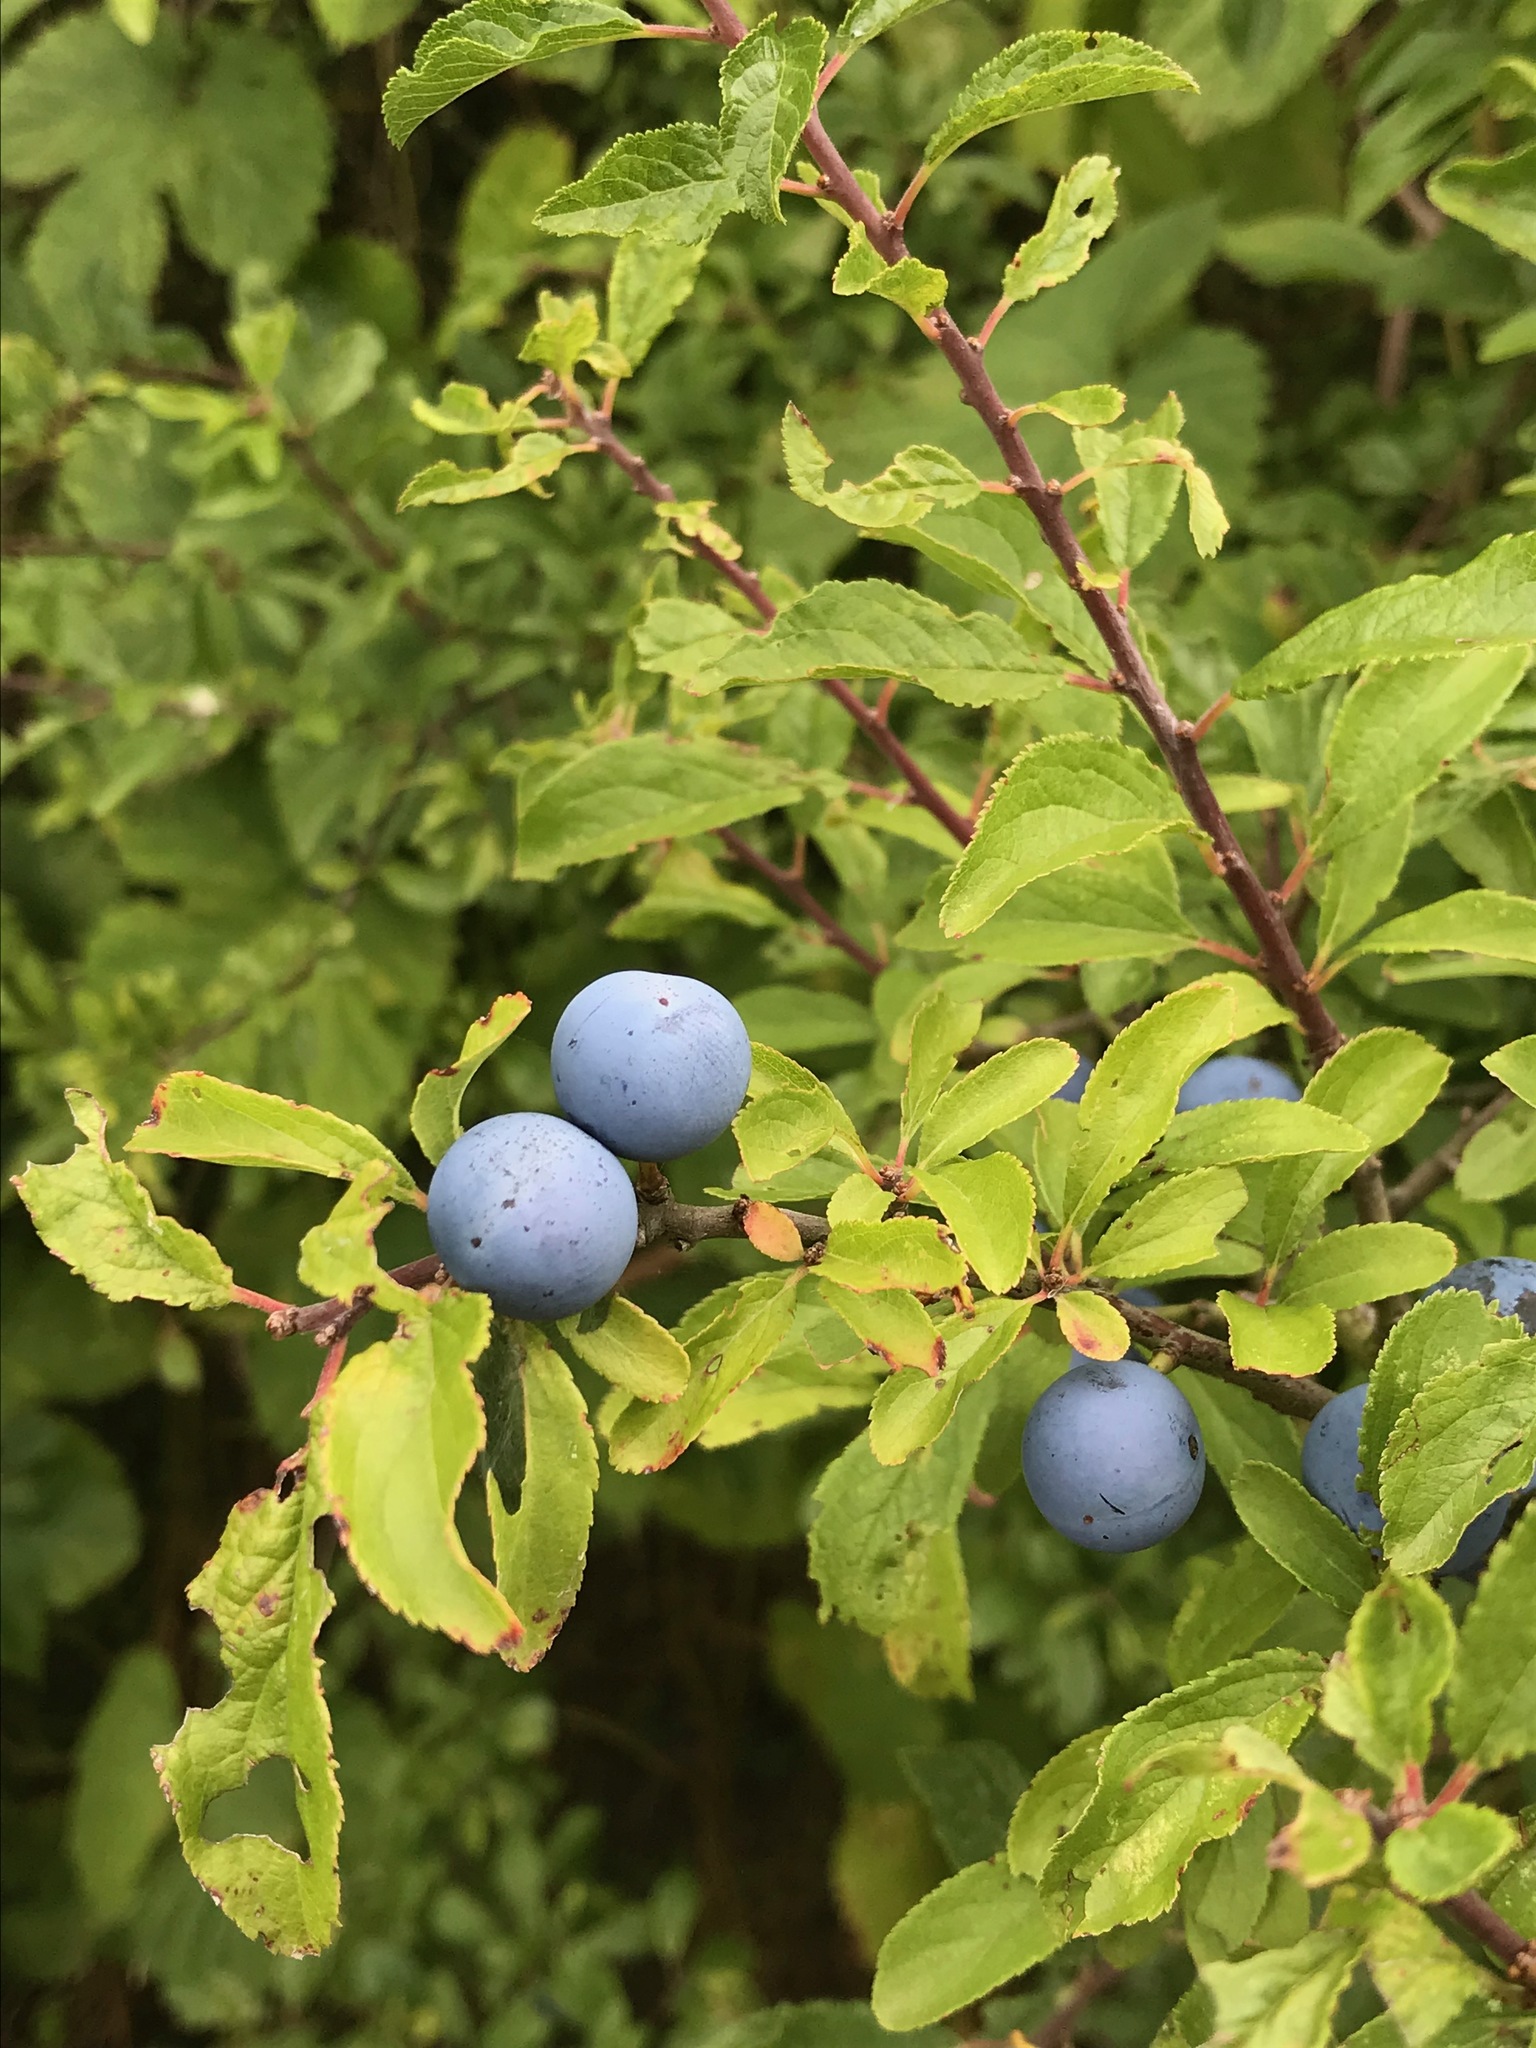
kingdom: Plantae
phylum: Tracheophyta
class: Magnoliopsida
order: Rosales
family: Rosaceae
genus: Prunus
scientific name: Prunus spinosa
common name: Blackthorn
